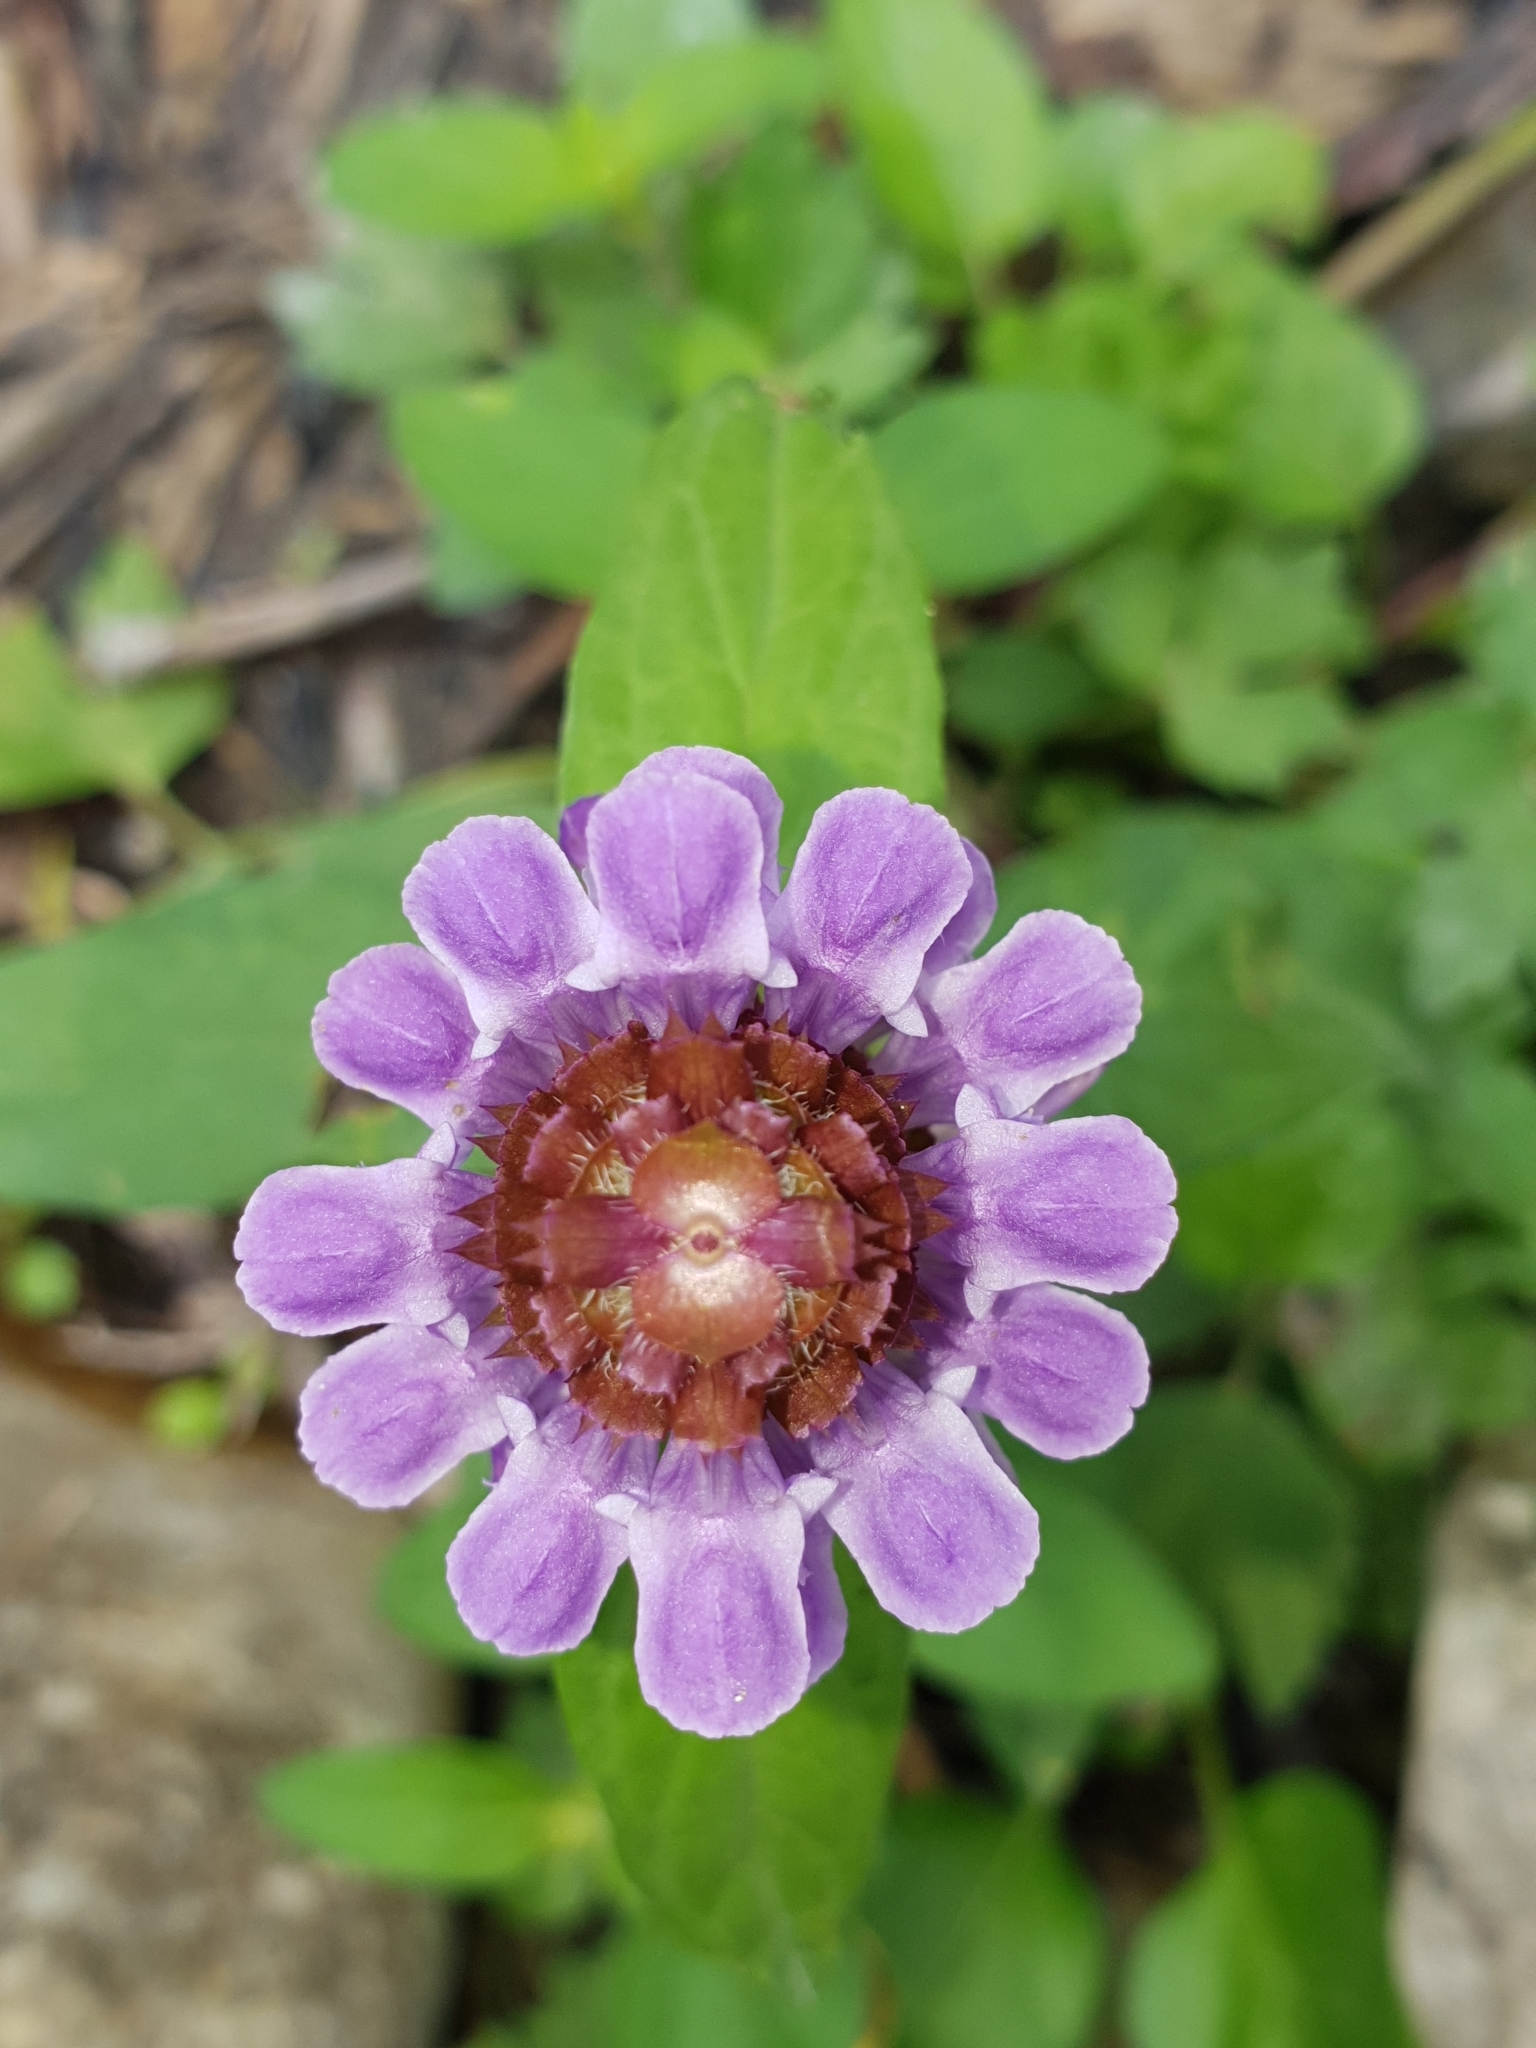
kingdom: Plantae
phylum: Tracheophyta
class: Magnoliopsida
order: Lamiales
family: Lamiaceae
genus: Prunella
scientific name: Prunella vulgaris
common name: Heal-all
